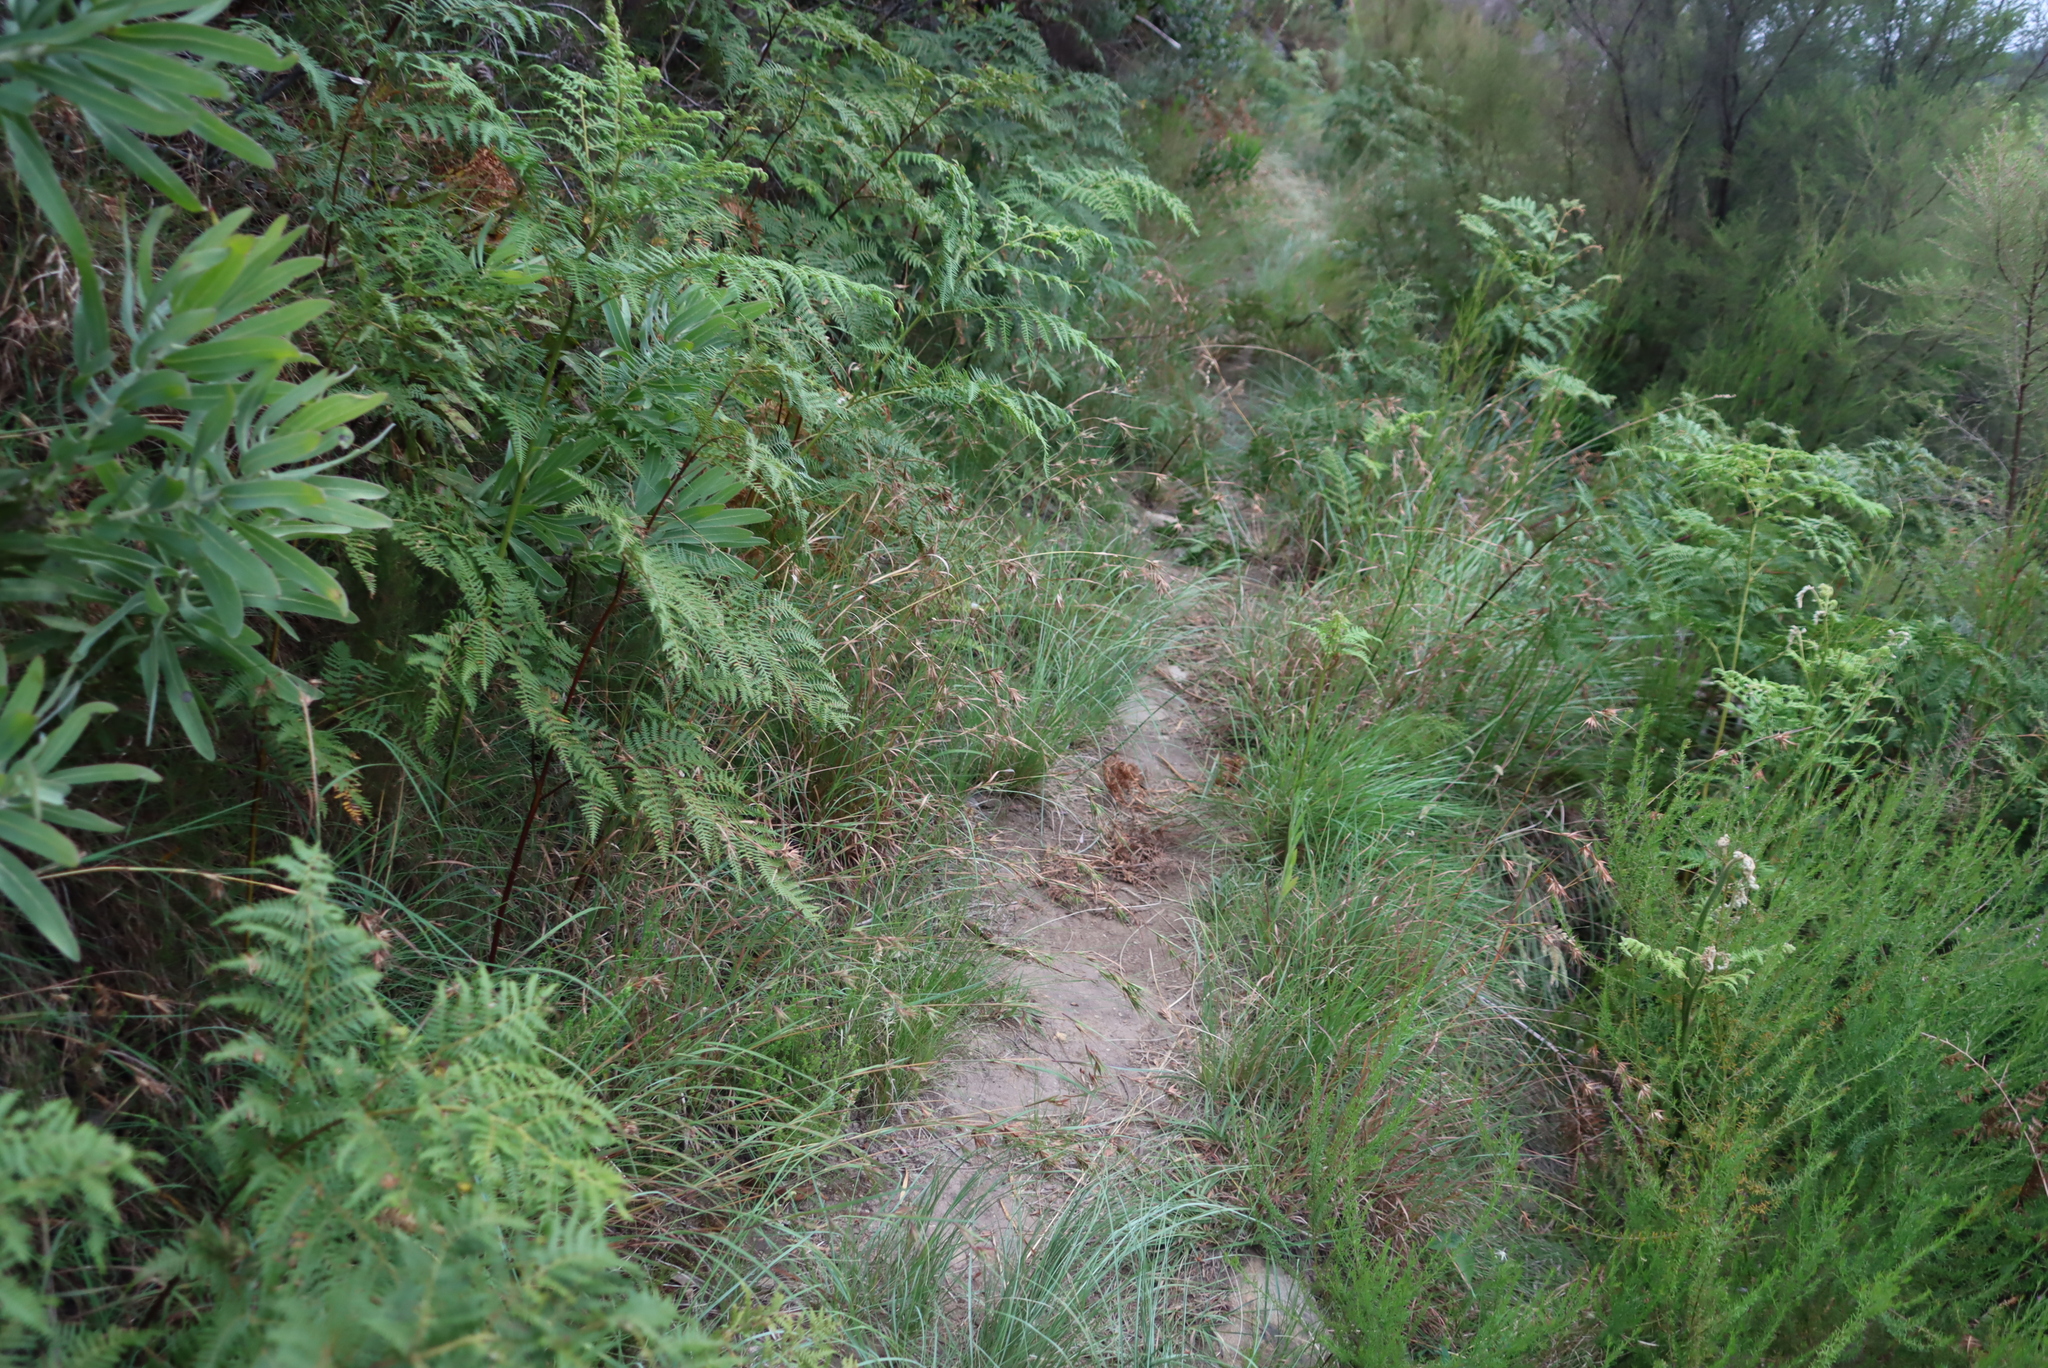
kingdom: Plantae
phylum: Tracheophyta
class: Polypodiopsida
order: Polypodiales
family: Dennstaedtiaceae
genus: Pteridium
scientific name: Pteridium aquilinum
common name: Bracken
